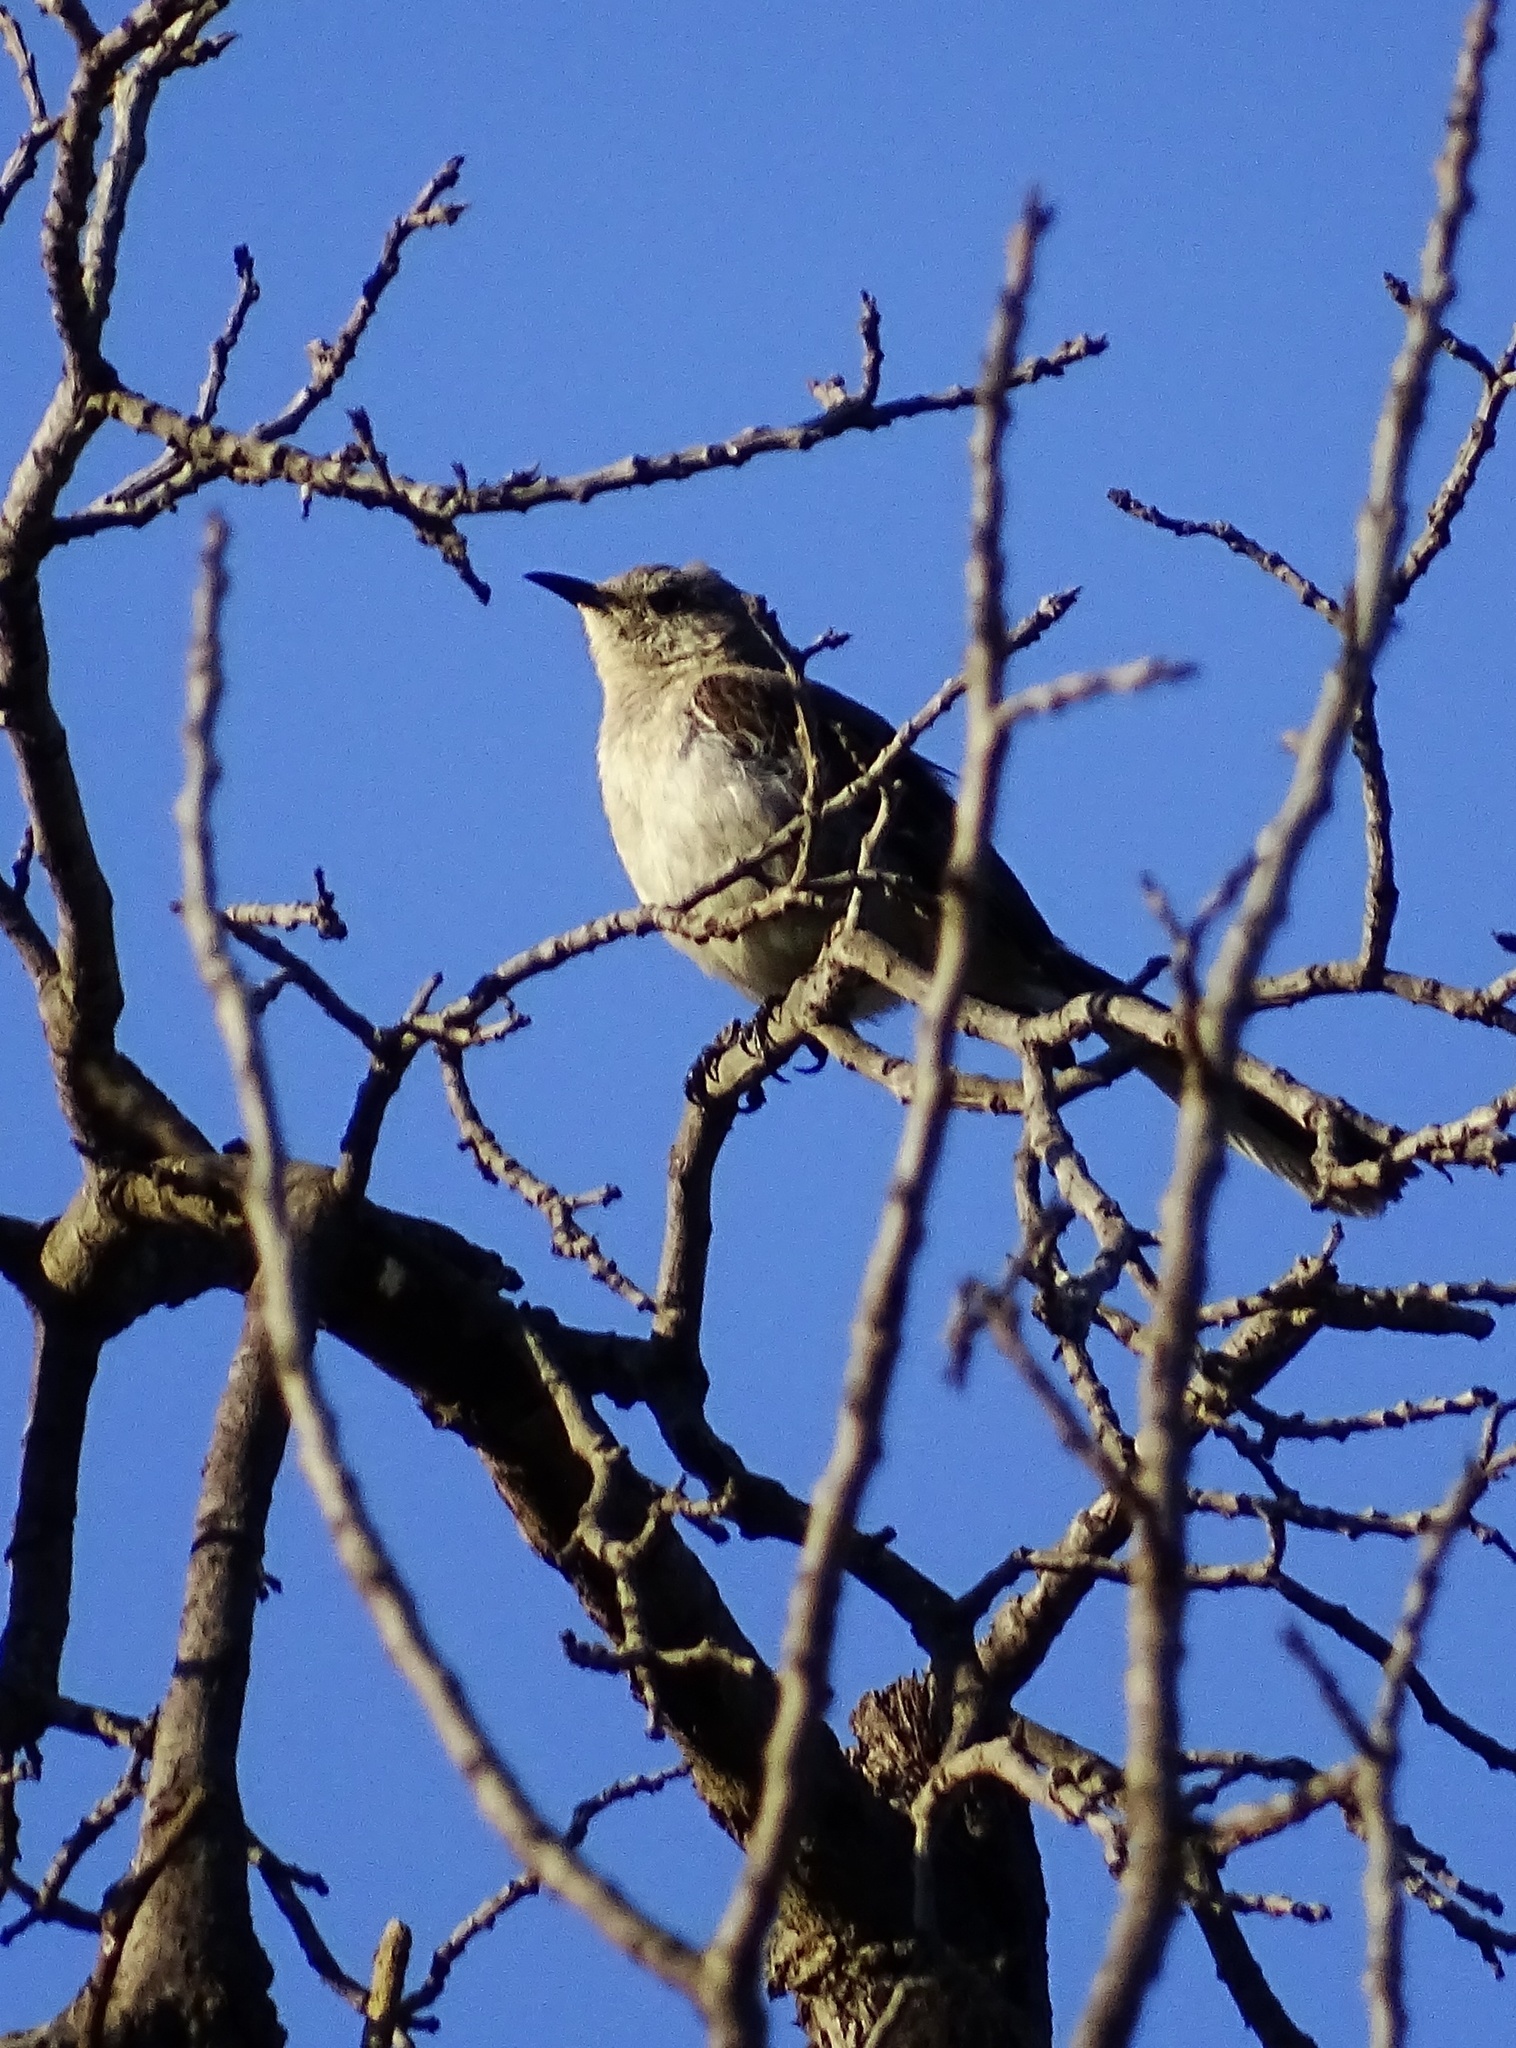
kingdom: Animalia
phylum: Chordata
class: Aves
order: Passeriformes
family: Mimidae
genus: Mimus
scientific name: Mimus polyglottos
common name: Northern mockingbird
